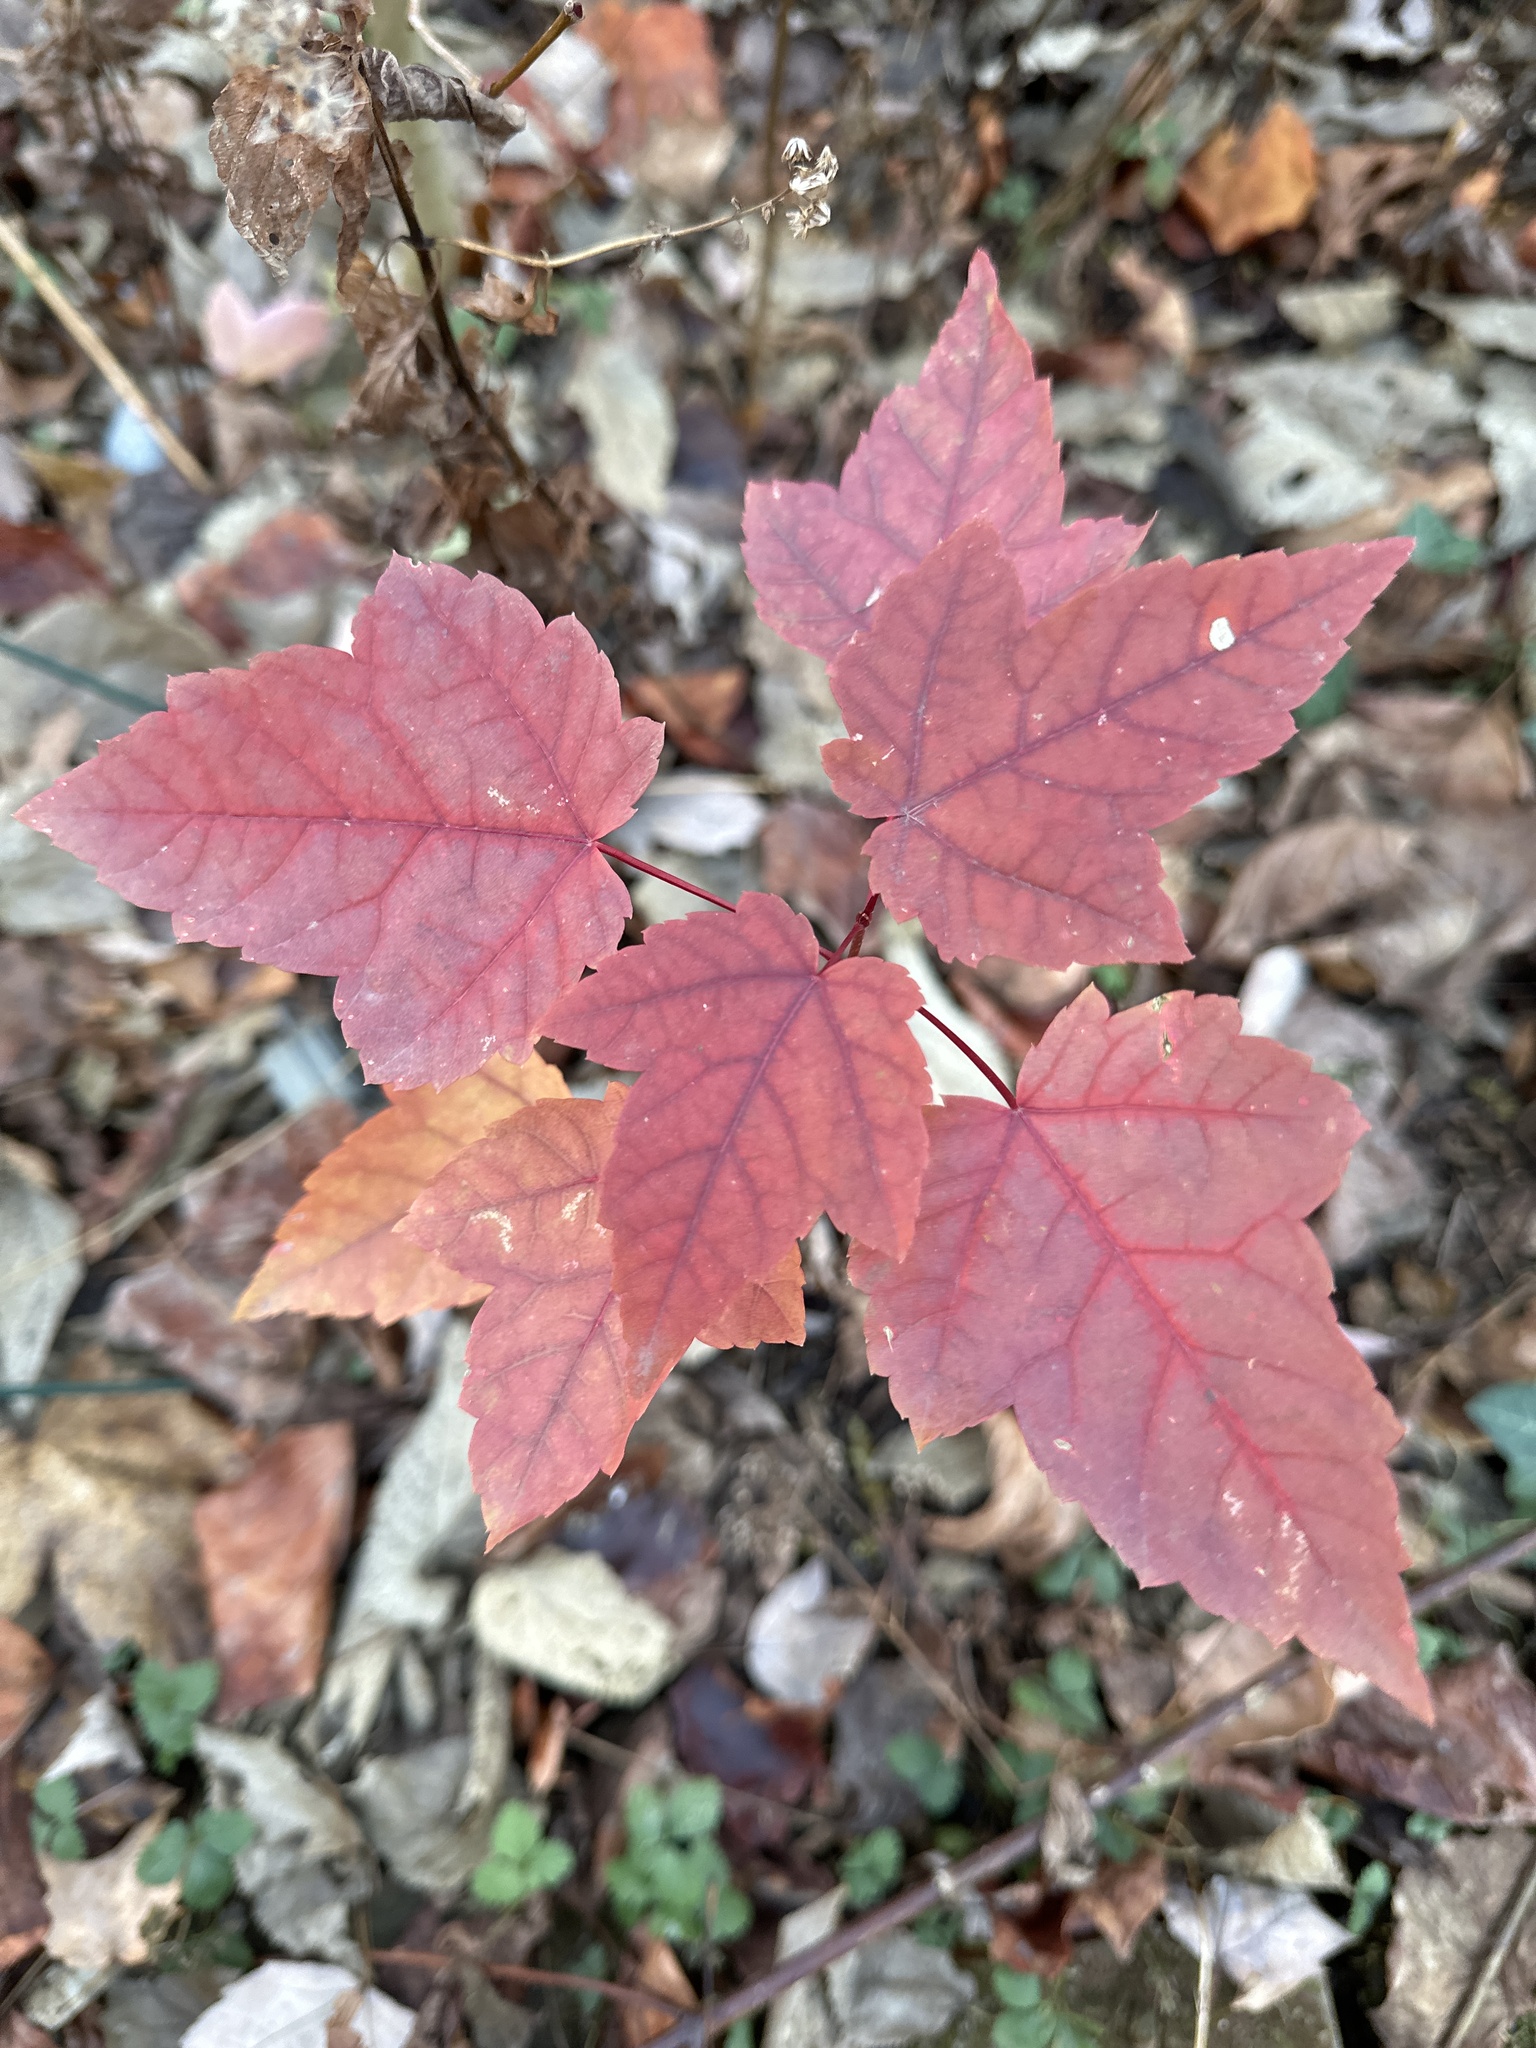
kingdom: Plantae
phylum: Tracheophyta
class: Magnoliopsida
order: Sapindales
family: Sapindaceae
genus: Acer
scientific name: Acer rubrum
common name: Red maple
